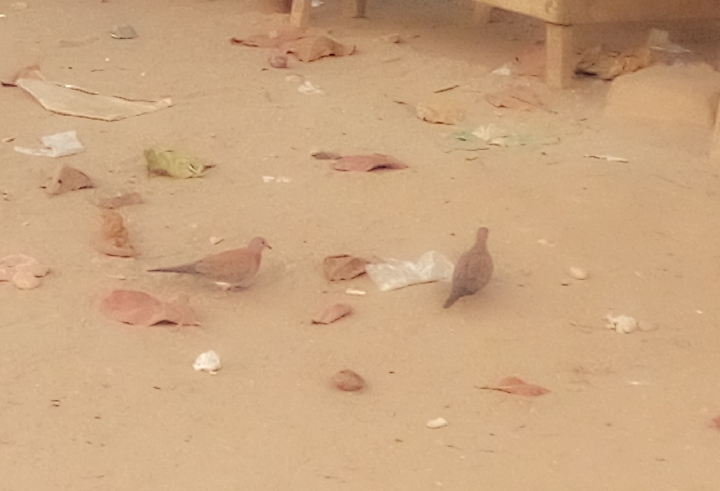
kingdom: Animalia
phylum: Chordata
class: Aves
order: Columbiformes
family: Columbidae
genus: Spilopelia
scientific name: Spilopelia senegalensis
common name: Laughing dove
